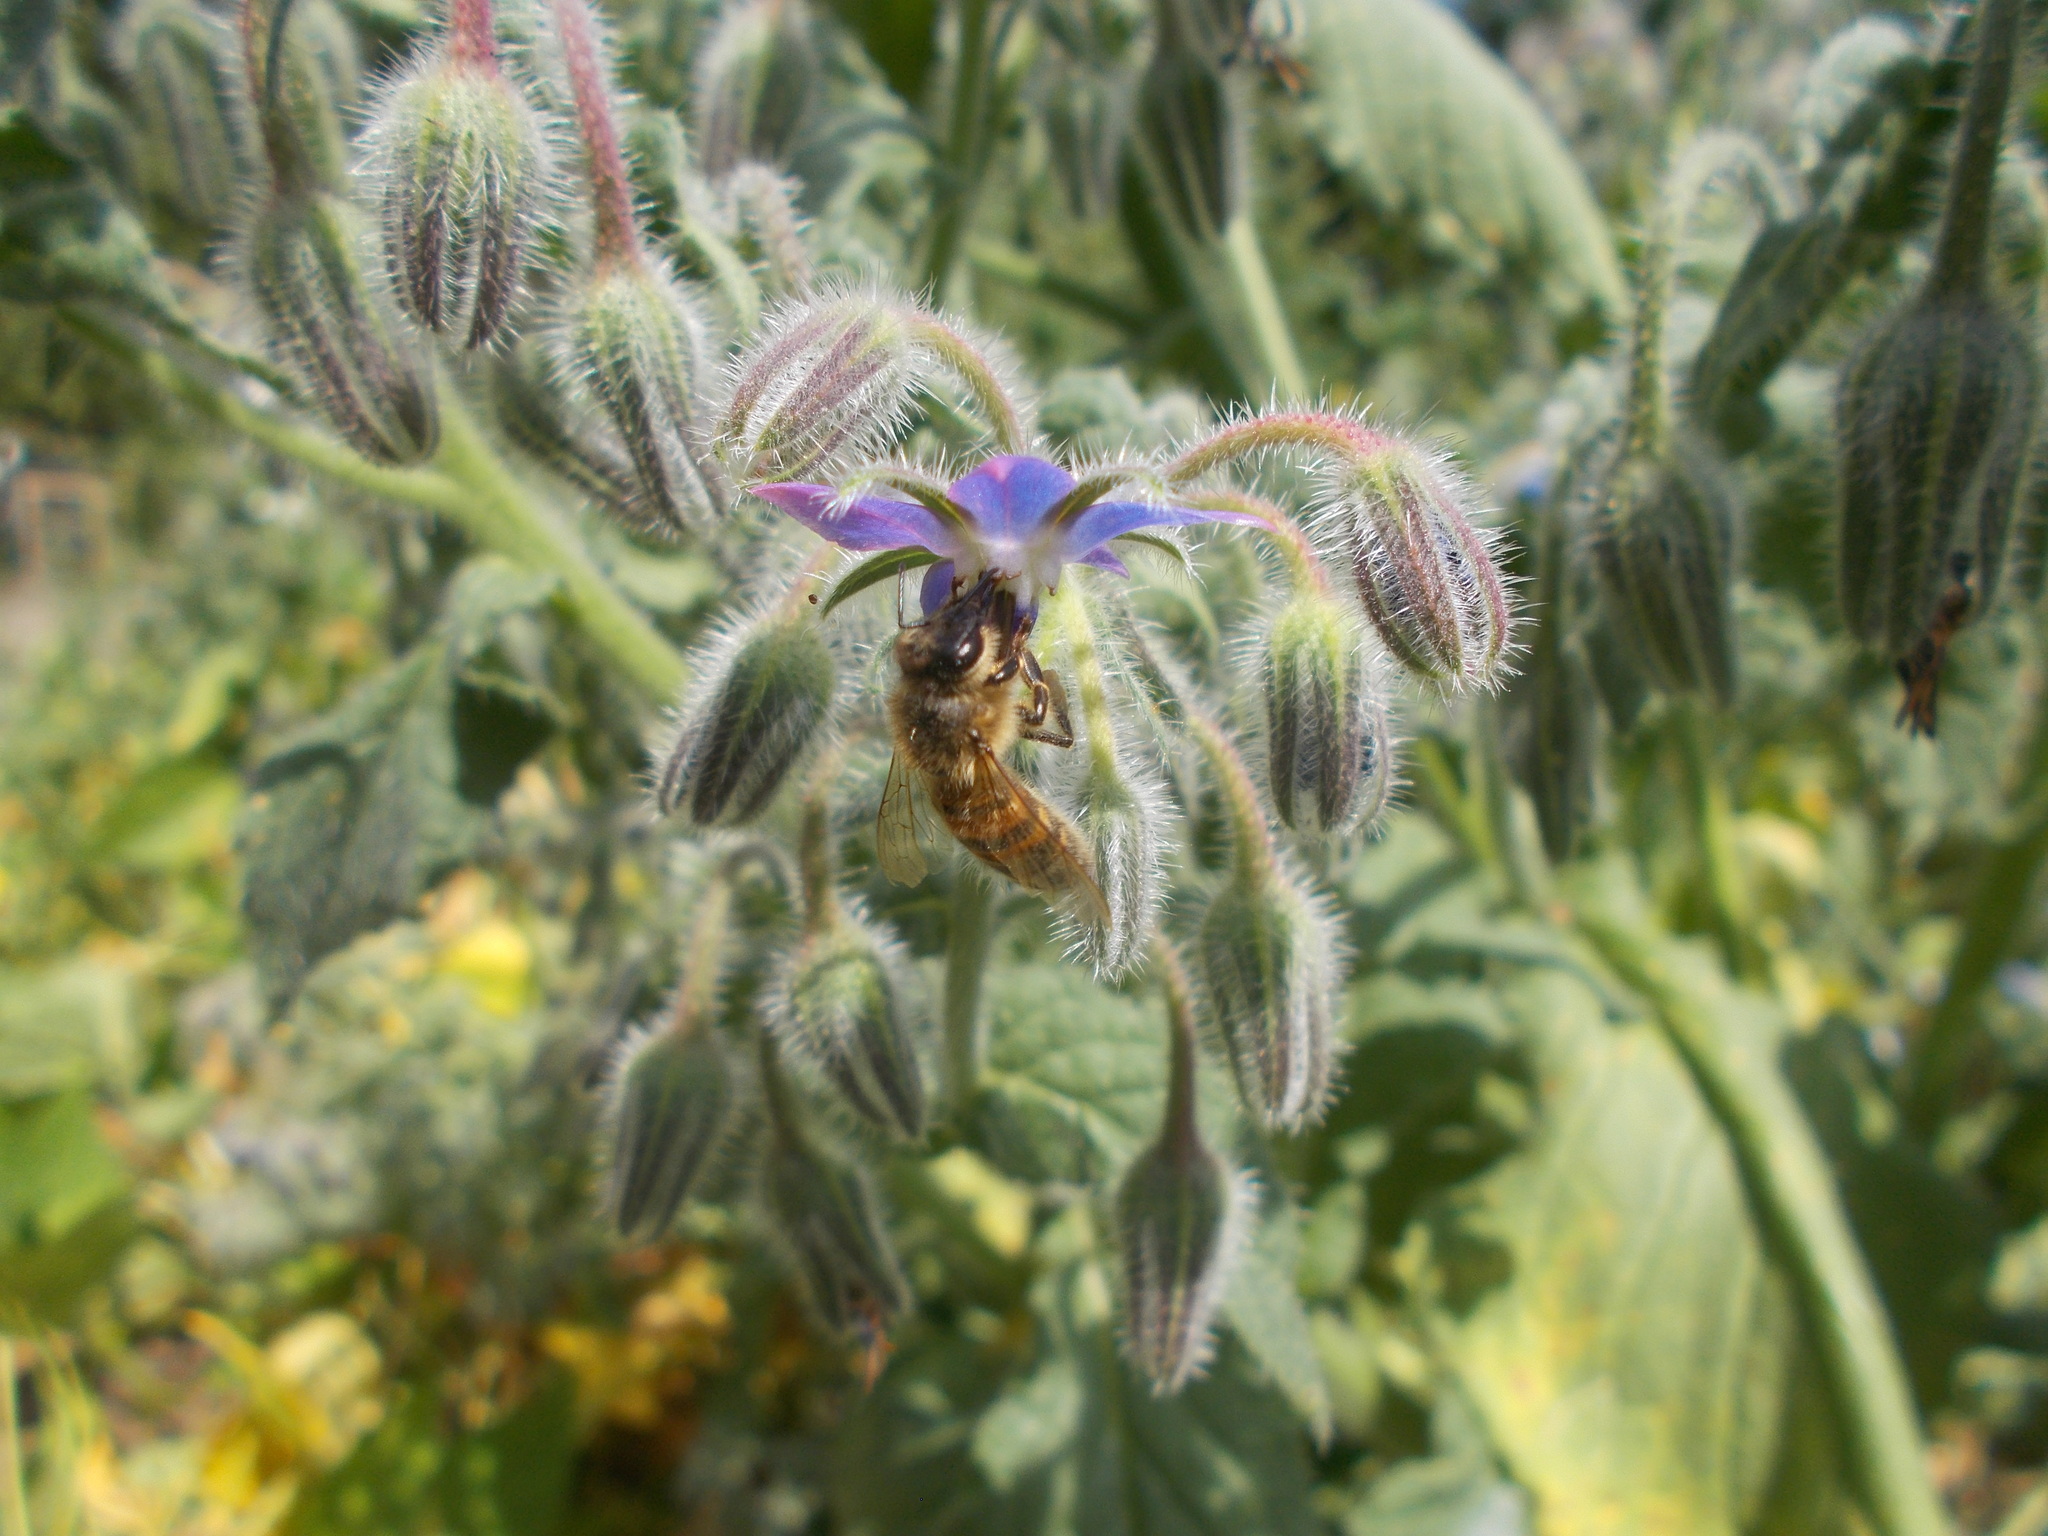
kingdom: Animalia
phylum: Arthropoda
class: Insecta
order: Hymenoptera
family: Apidae
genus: Apis
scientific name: Apis mellifera
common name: Honey bee
